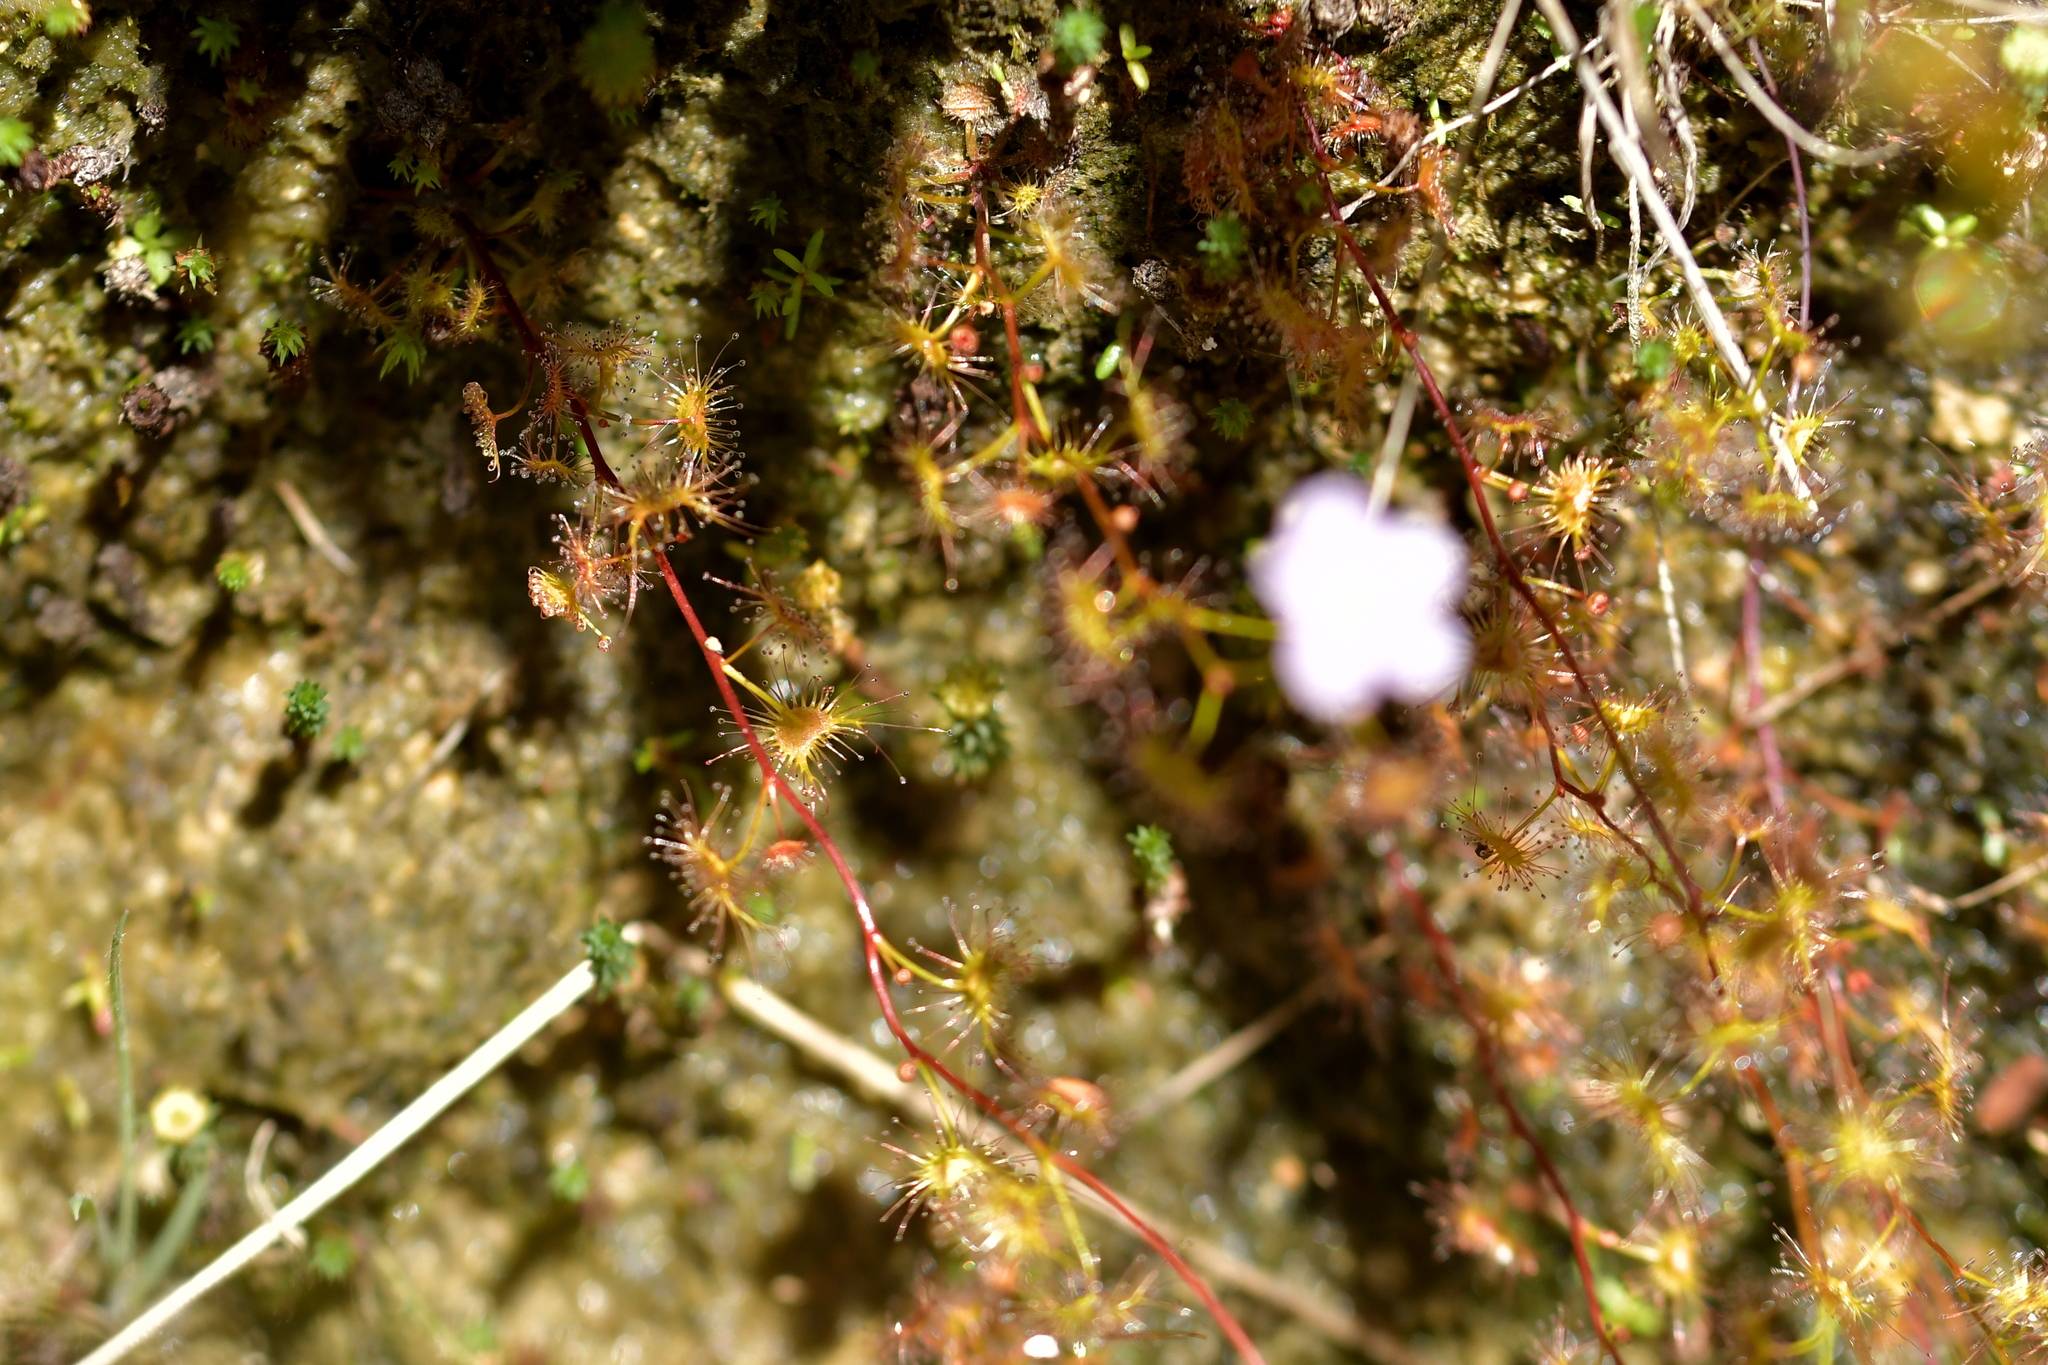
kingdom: Plantae
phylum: Tracheophyta
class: Magnoliopsida
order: Caryophyllales
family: Droseraceae
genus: Drosera
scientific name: Drosera peltata
